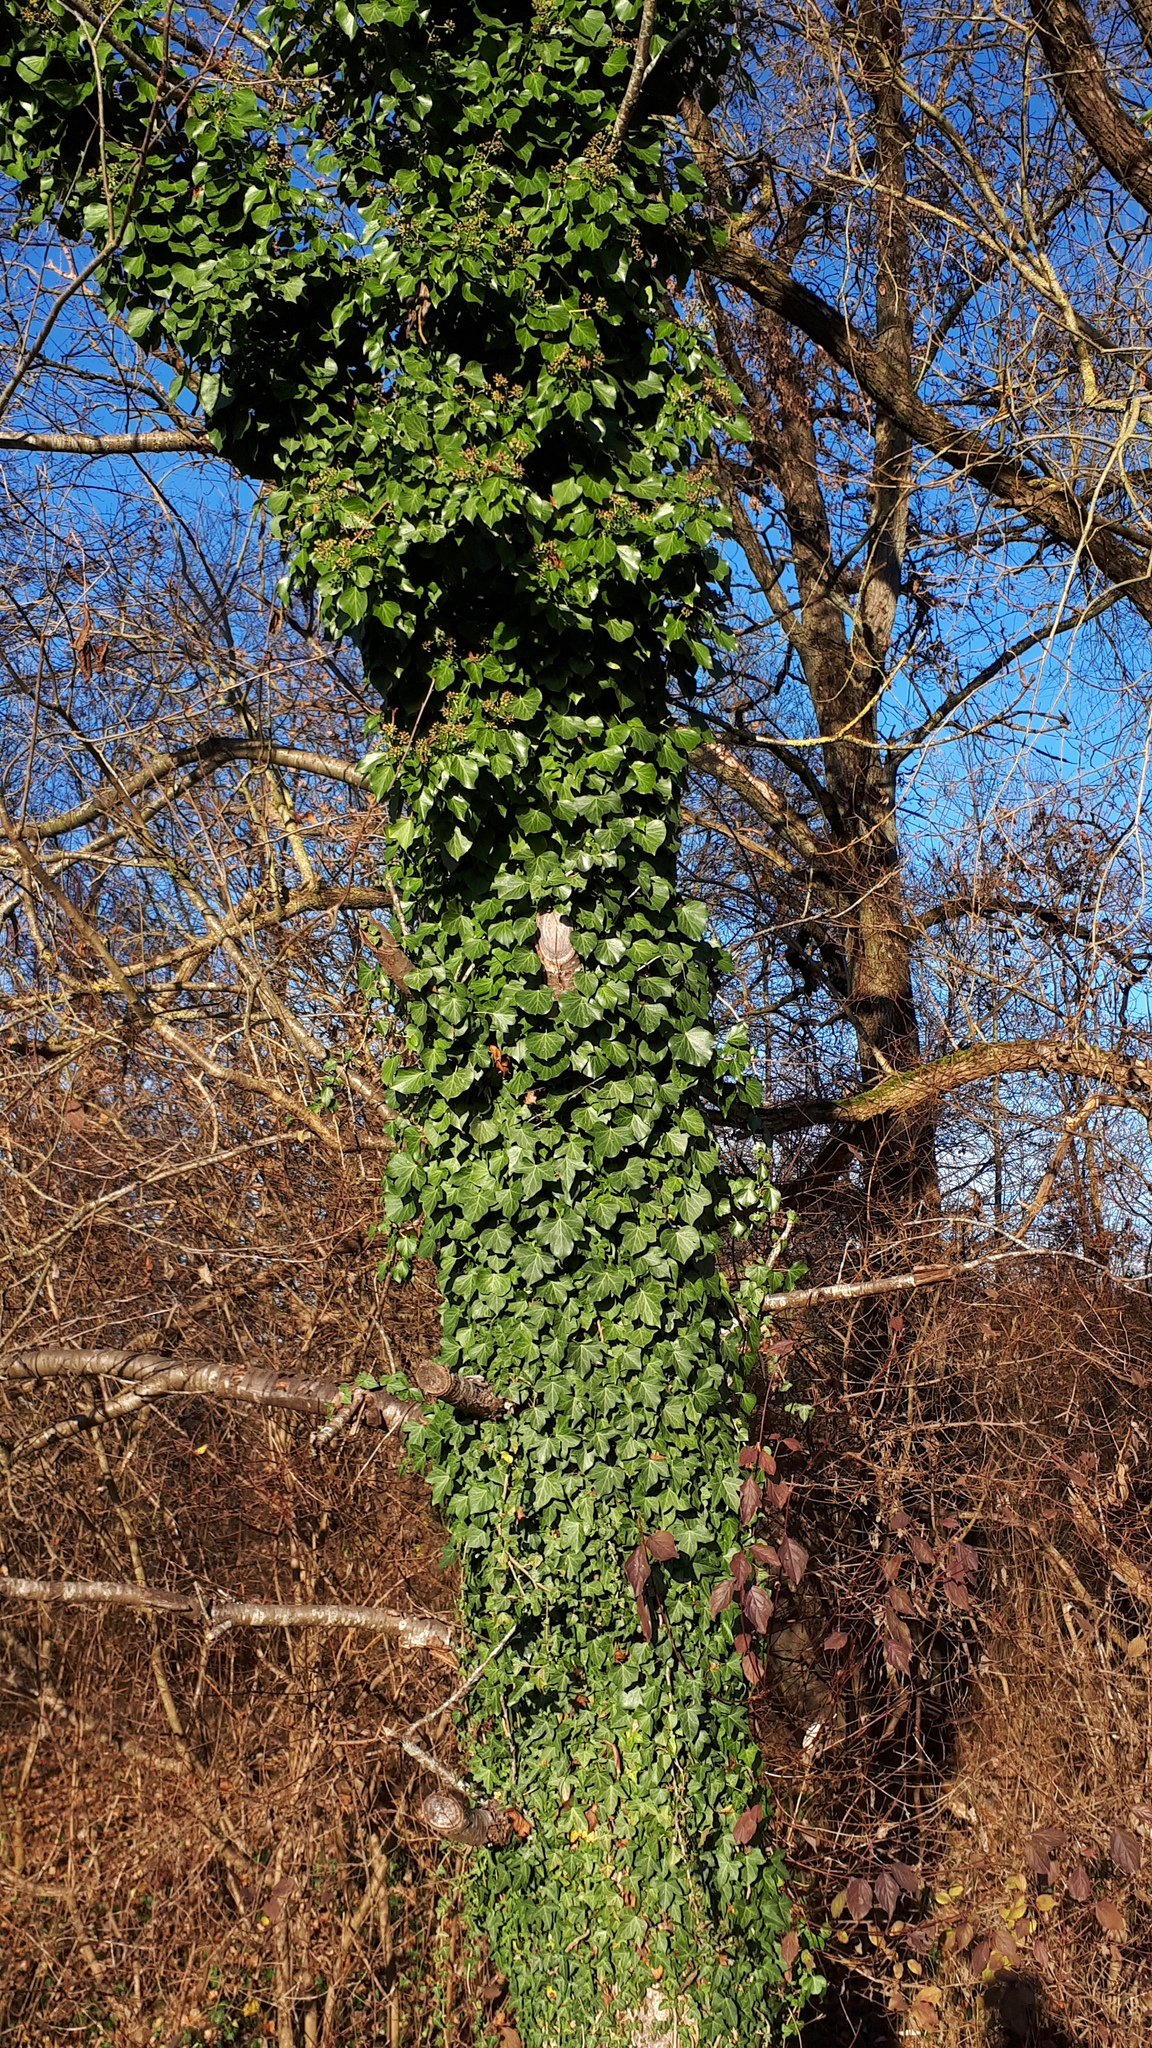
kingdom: Plantae
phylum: Tracheophyta
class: Magnoliopsida
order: Apiales
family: Araliaceae
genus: Hedera
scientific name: Hedera helix
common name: Ivy
